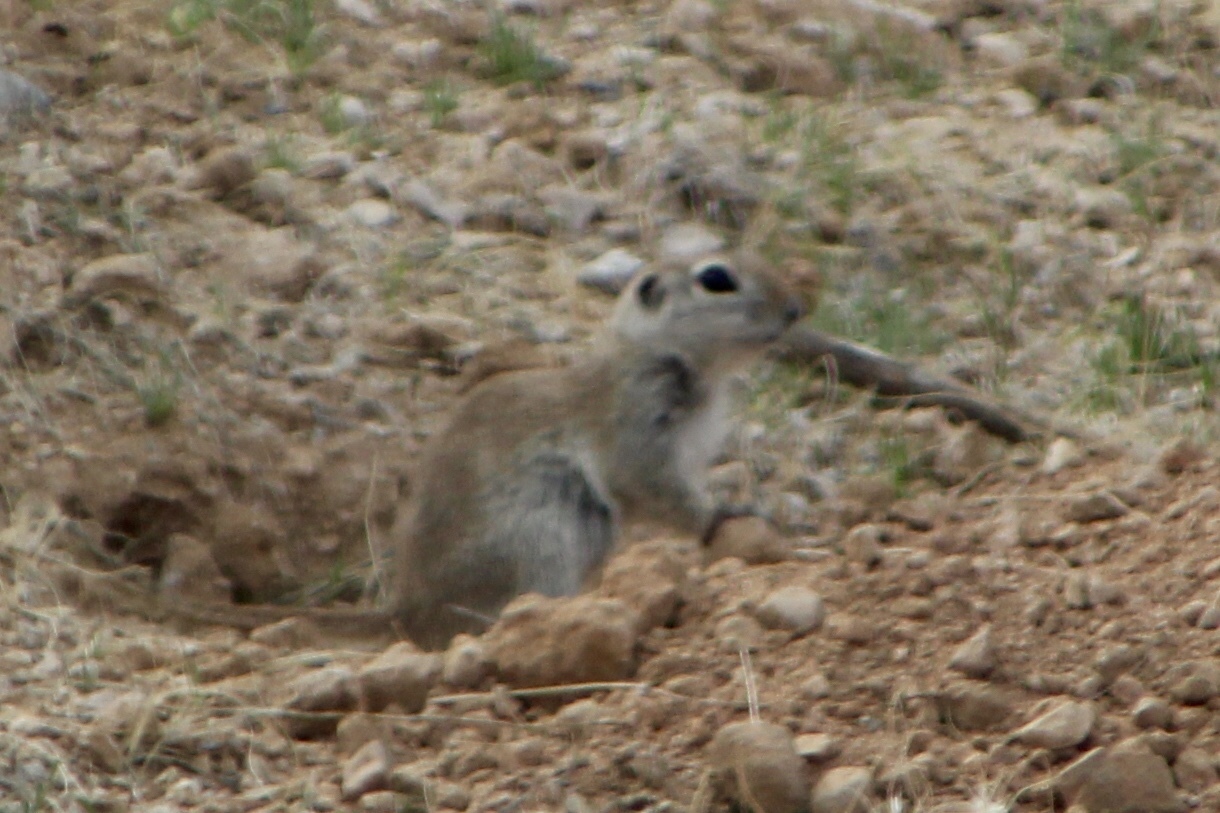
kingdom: Animalia
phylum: Chordata
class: Mammalia
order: Rodentia
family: Sciuridae
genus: Xerospermophilus
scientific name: Xerospermophilus tereticaudus
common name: Round-tailed ground squirrel
